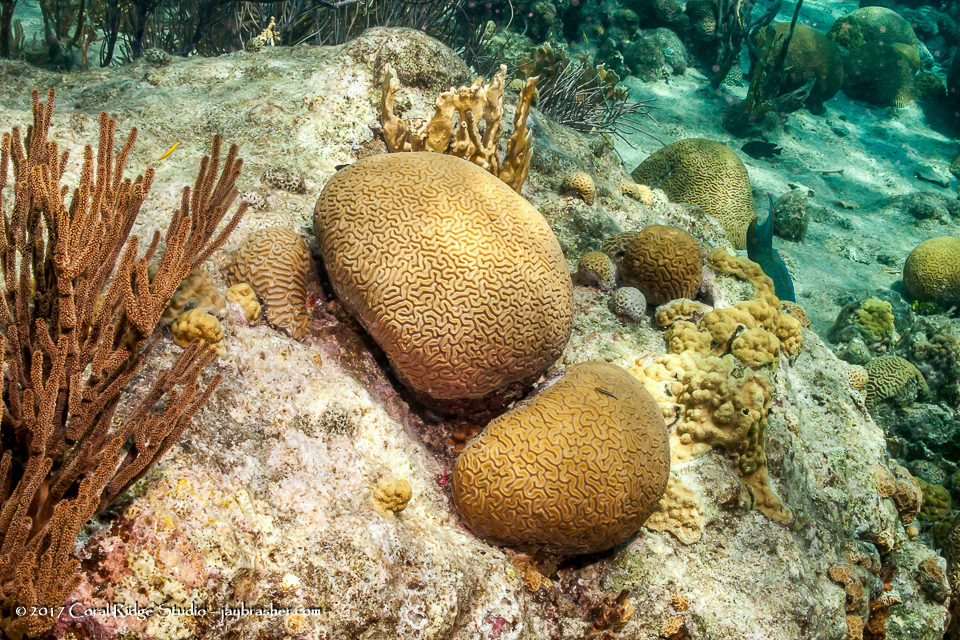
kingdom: Animalia
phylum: Cnidaria
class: Anthozoa
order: Scleractinia
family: Faviidae
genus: Diploria
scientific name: Diploria labyrinthiformis
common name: Grooved brain coral
